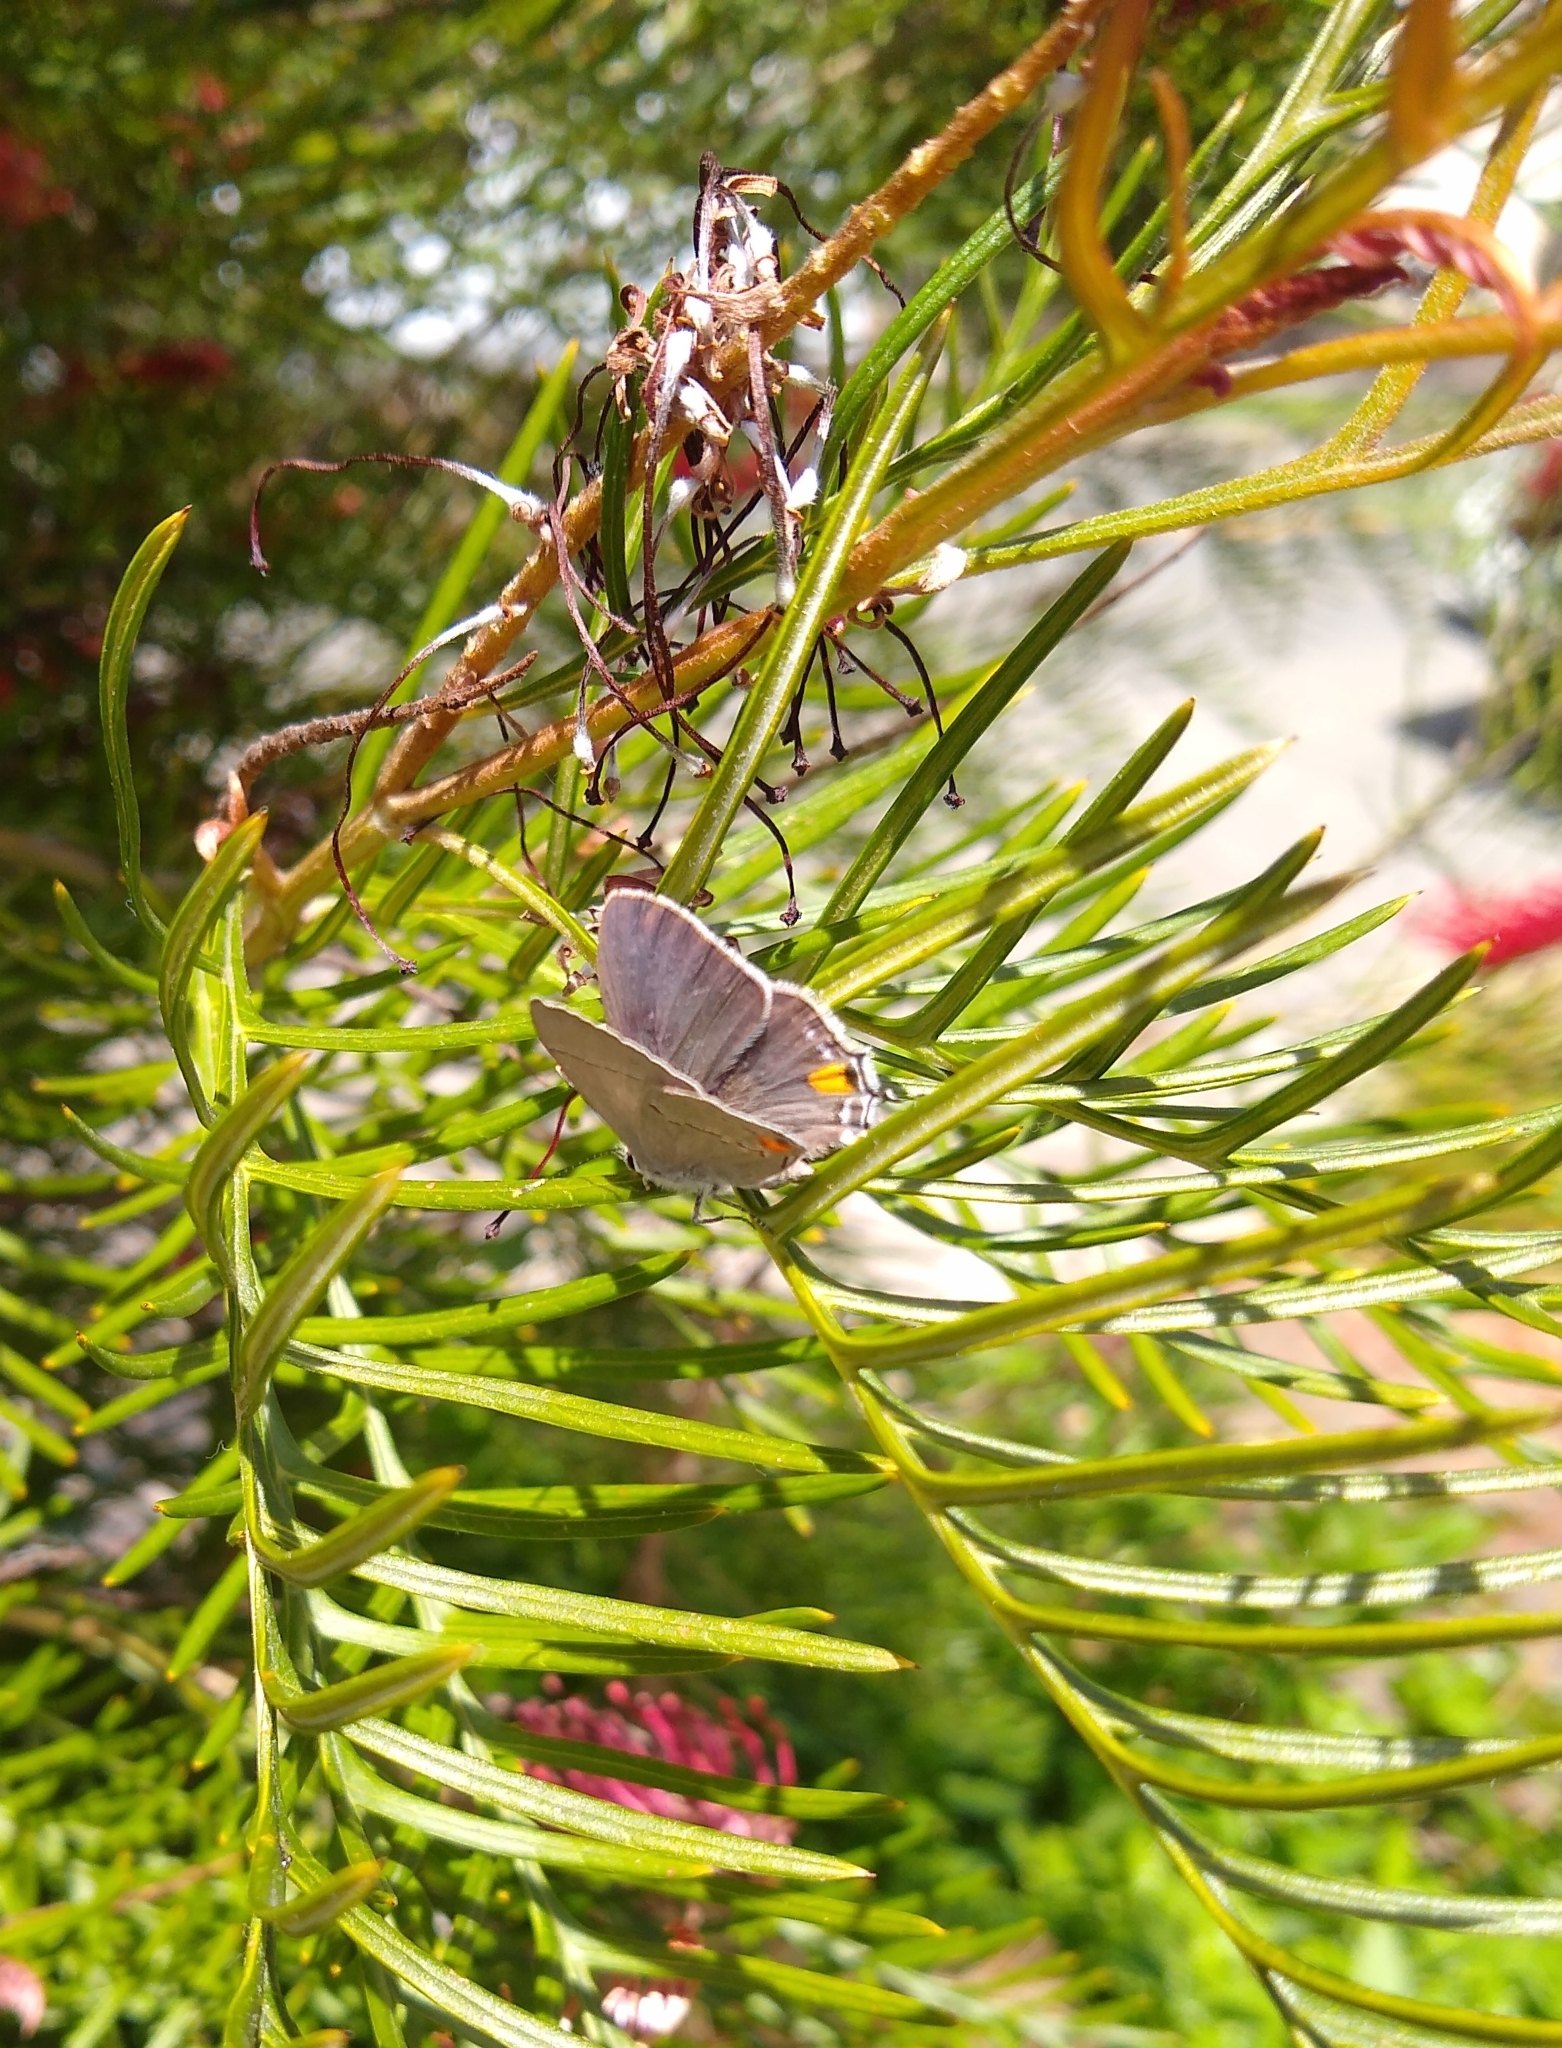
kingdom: Animalia
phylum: Arthropoda
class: Insecta
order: Lepidoptera
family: Lycaenidae
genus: Strymon
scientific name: Strymon melinus
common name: Gray hairstreak
